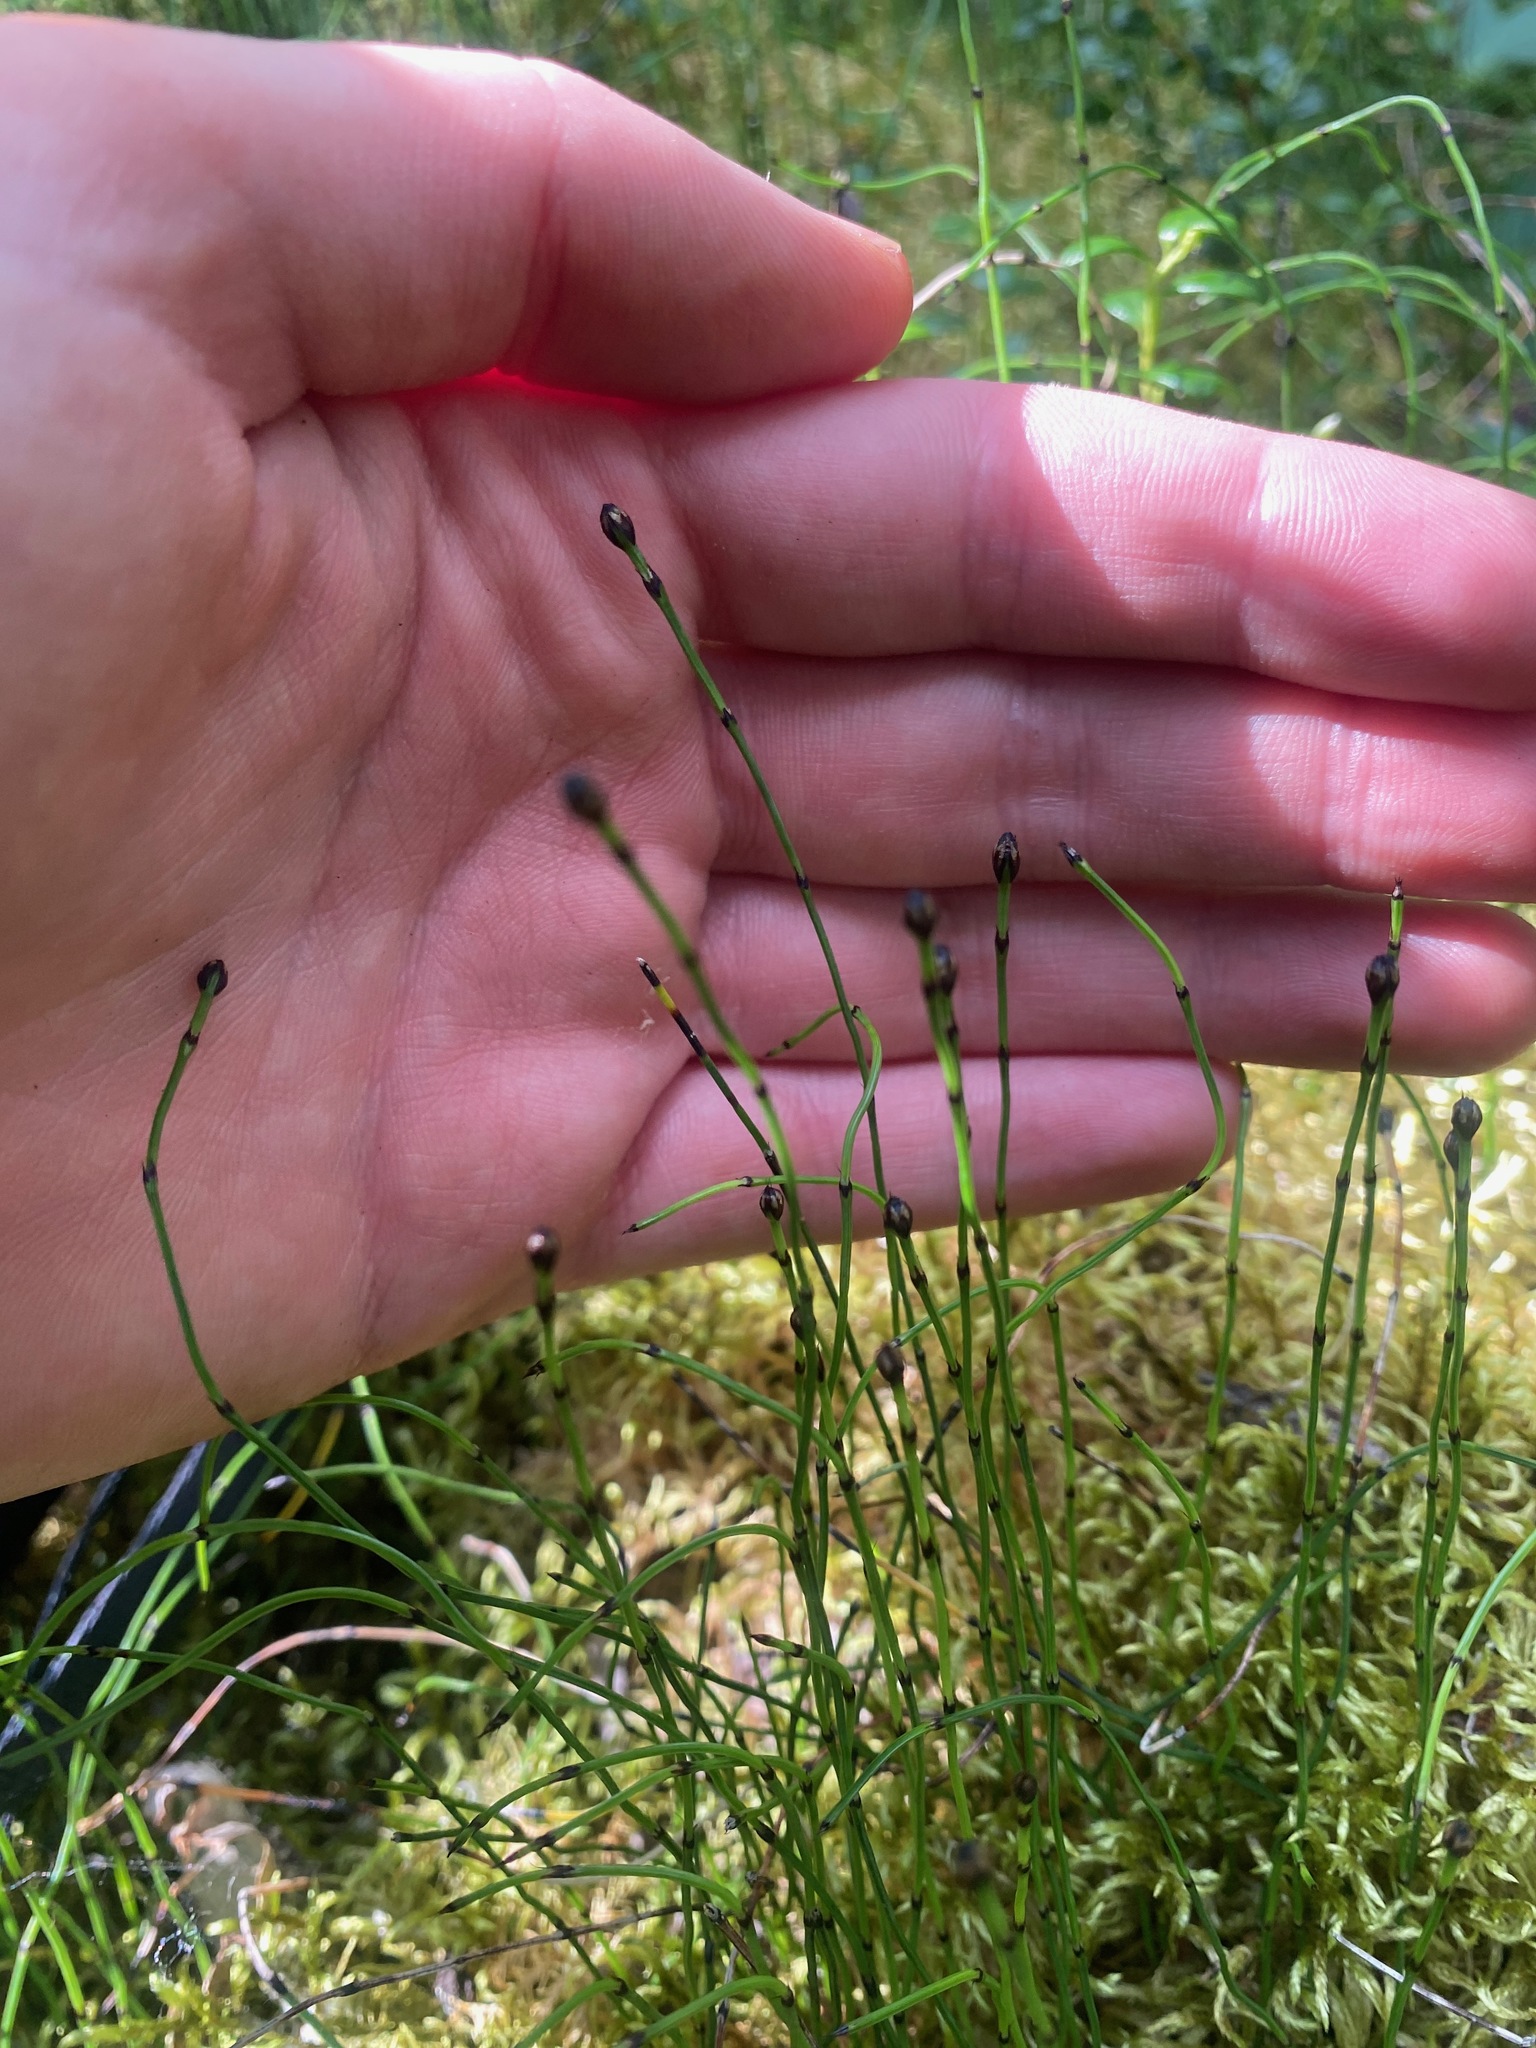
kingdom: Plantae
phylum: Tracheophyta
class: Polypodiopsida
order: Equisetales
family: Equisetaceae
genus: Equisetum
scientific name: Equisetum scirpoides
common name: Delicate horsetail
